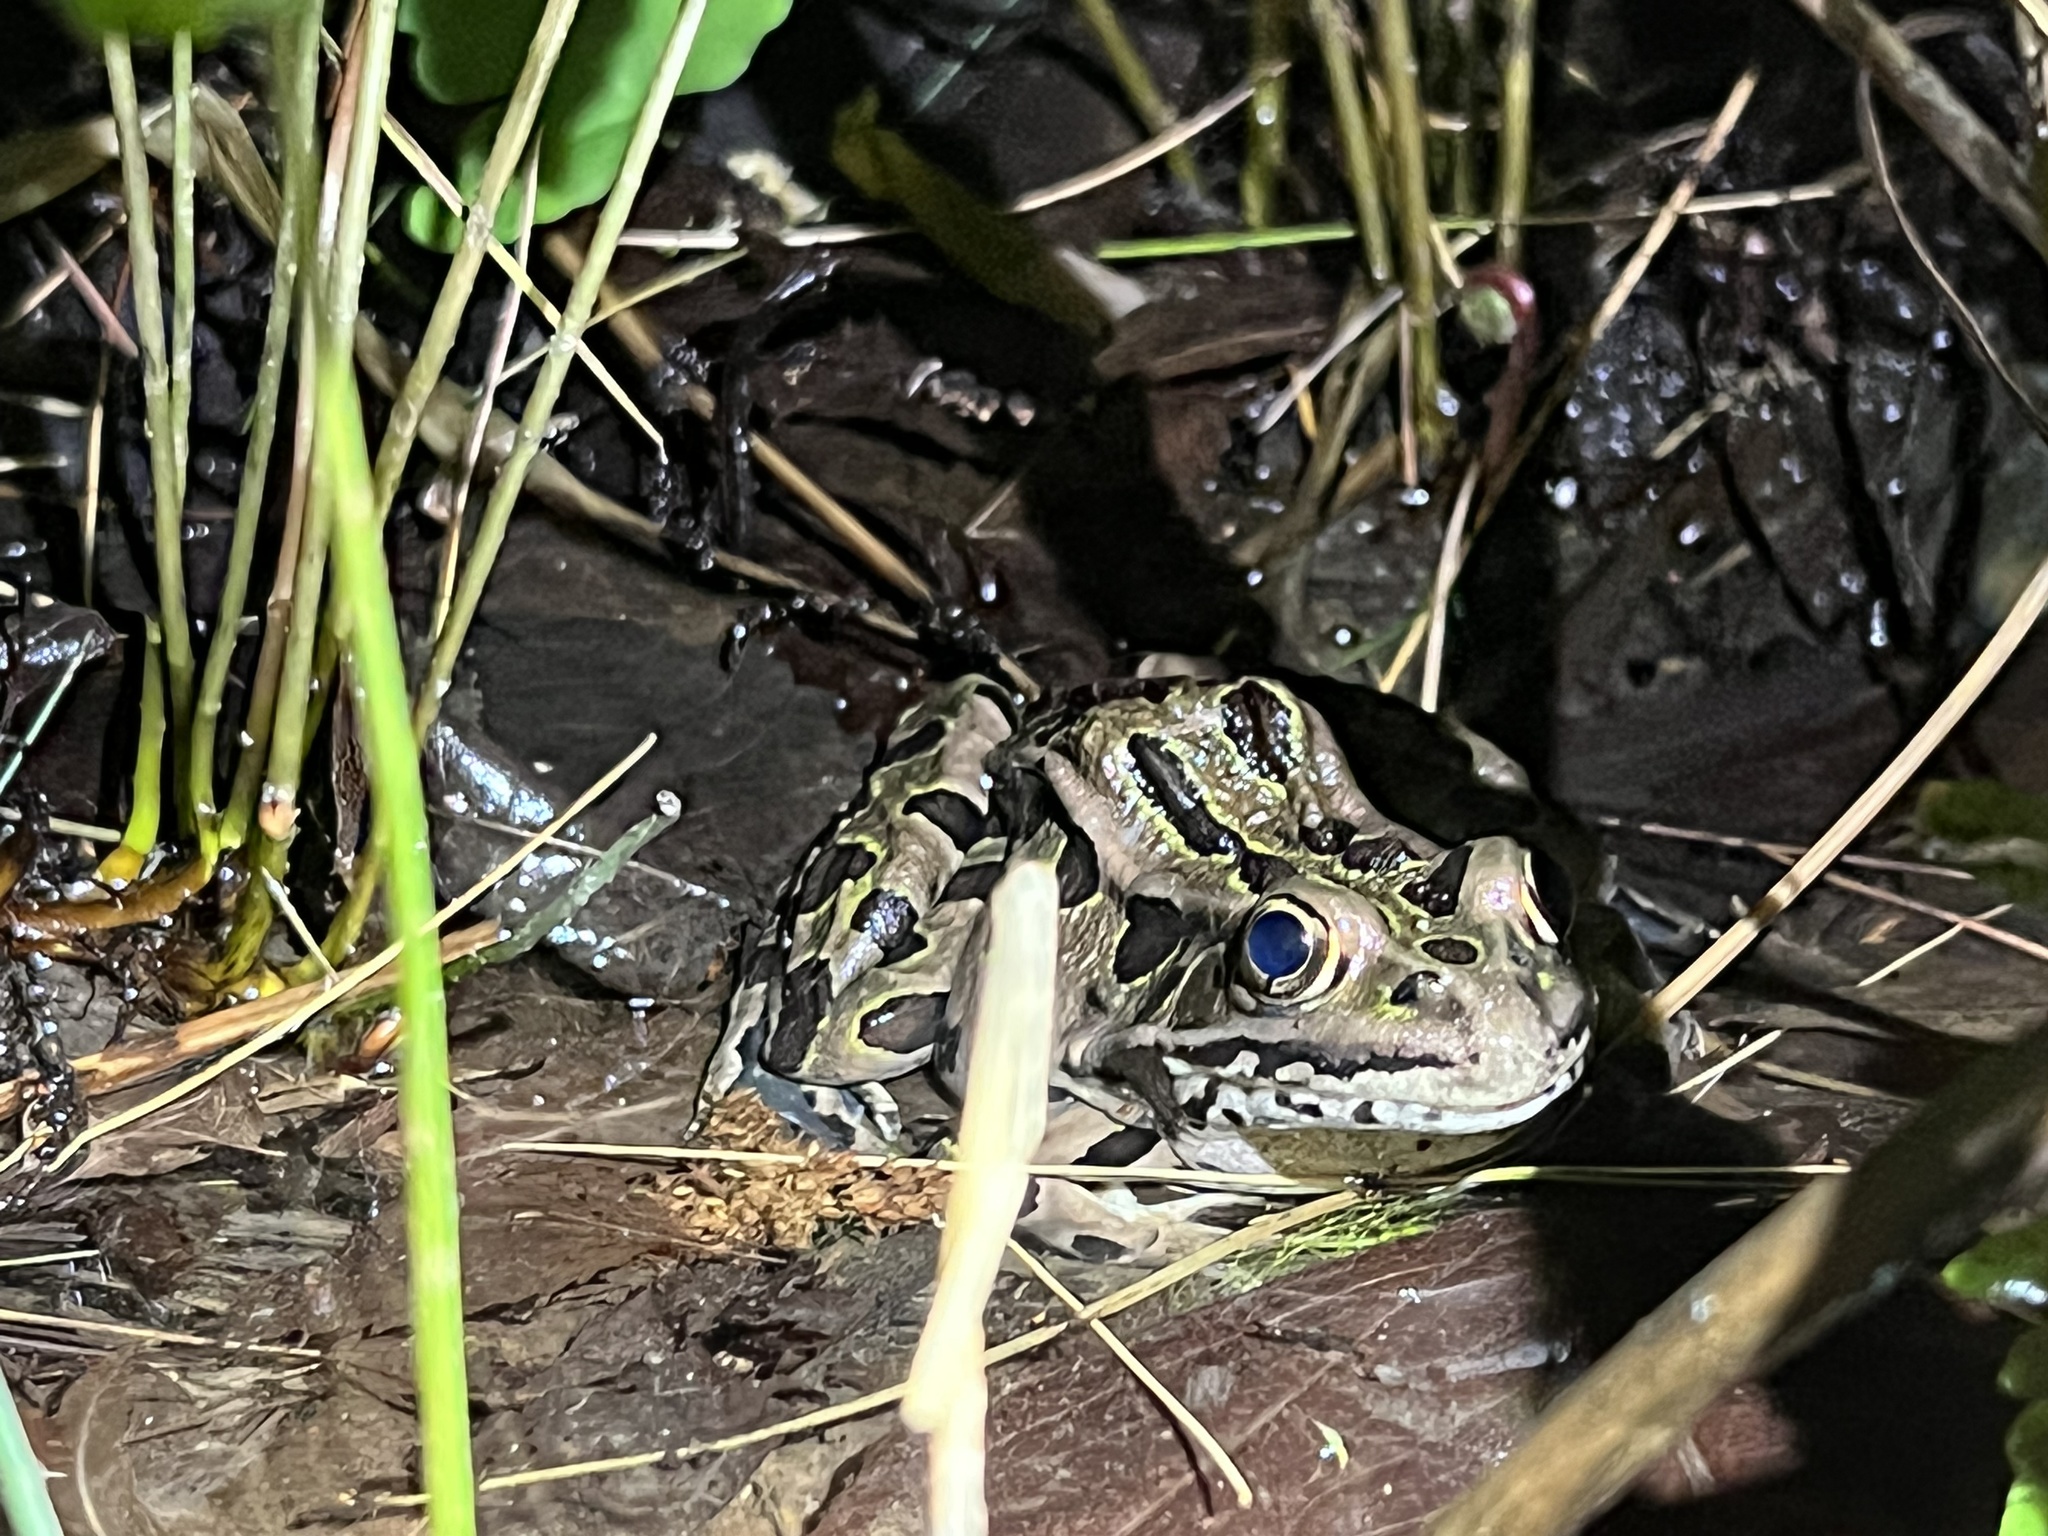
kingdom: Animalia
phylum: Chordata
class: Amphibia
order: Anura
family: Ranidae
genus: Lithobates
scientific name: Lithobates pipiens
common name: Northern leopard frog
